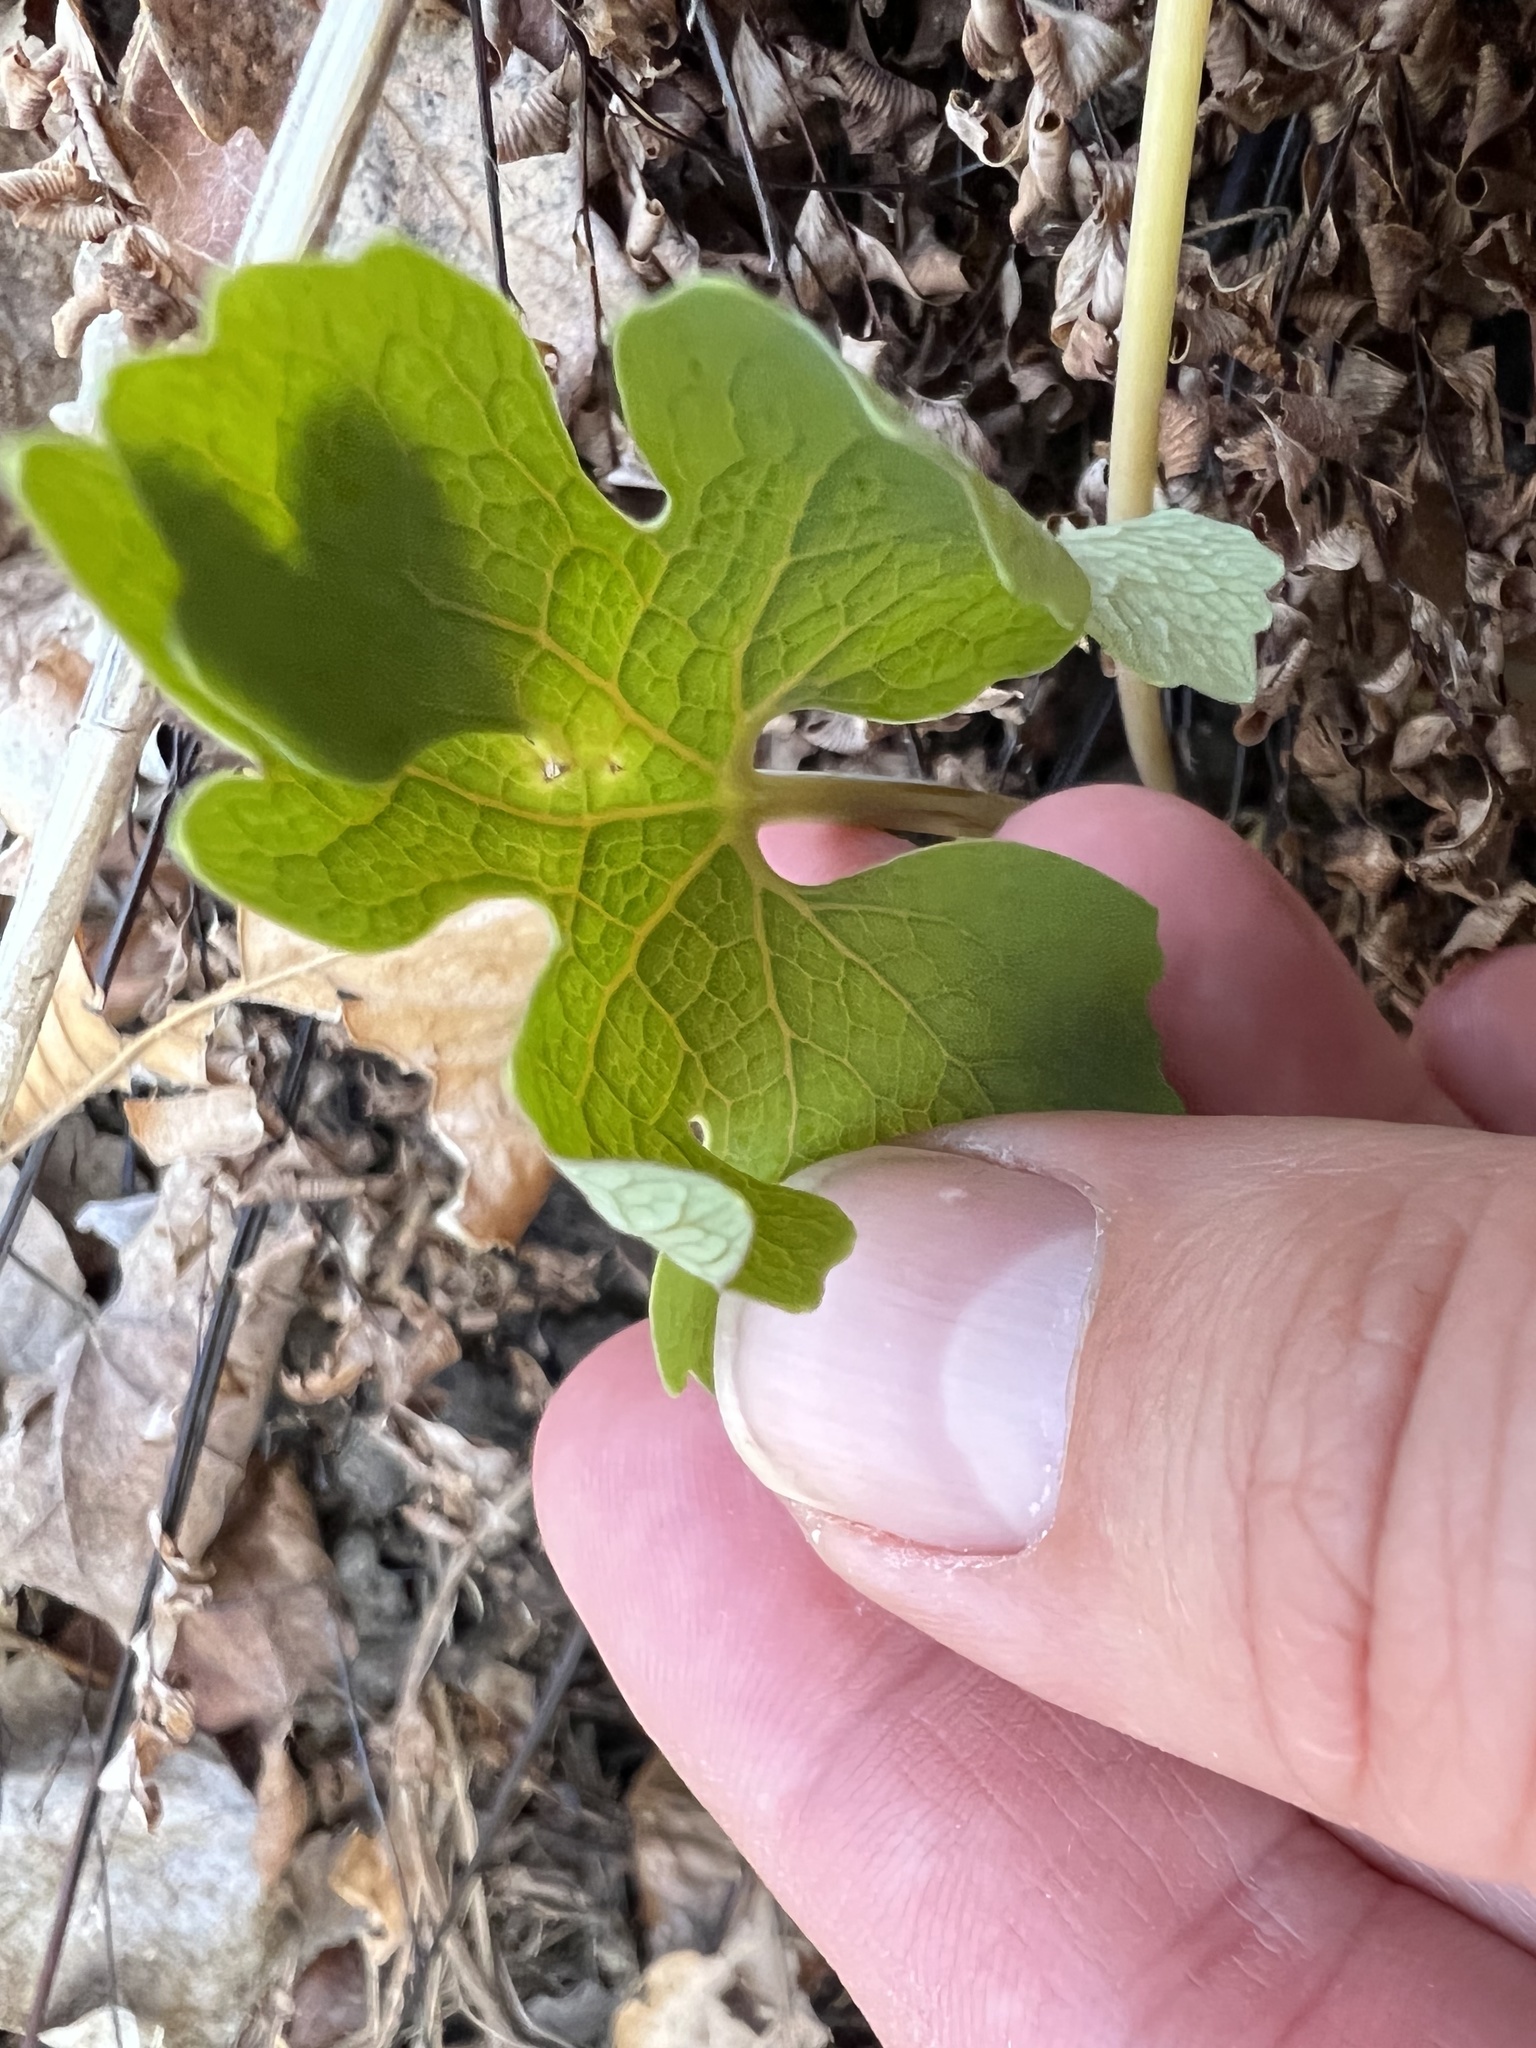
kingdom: Plantae
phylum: Tracheophyta
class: Magnoliopsida
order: Ranunculales
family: Papaveraceae
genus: Sanguinaria
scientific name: Sanguinaria canadensis
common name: Bloodroot
